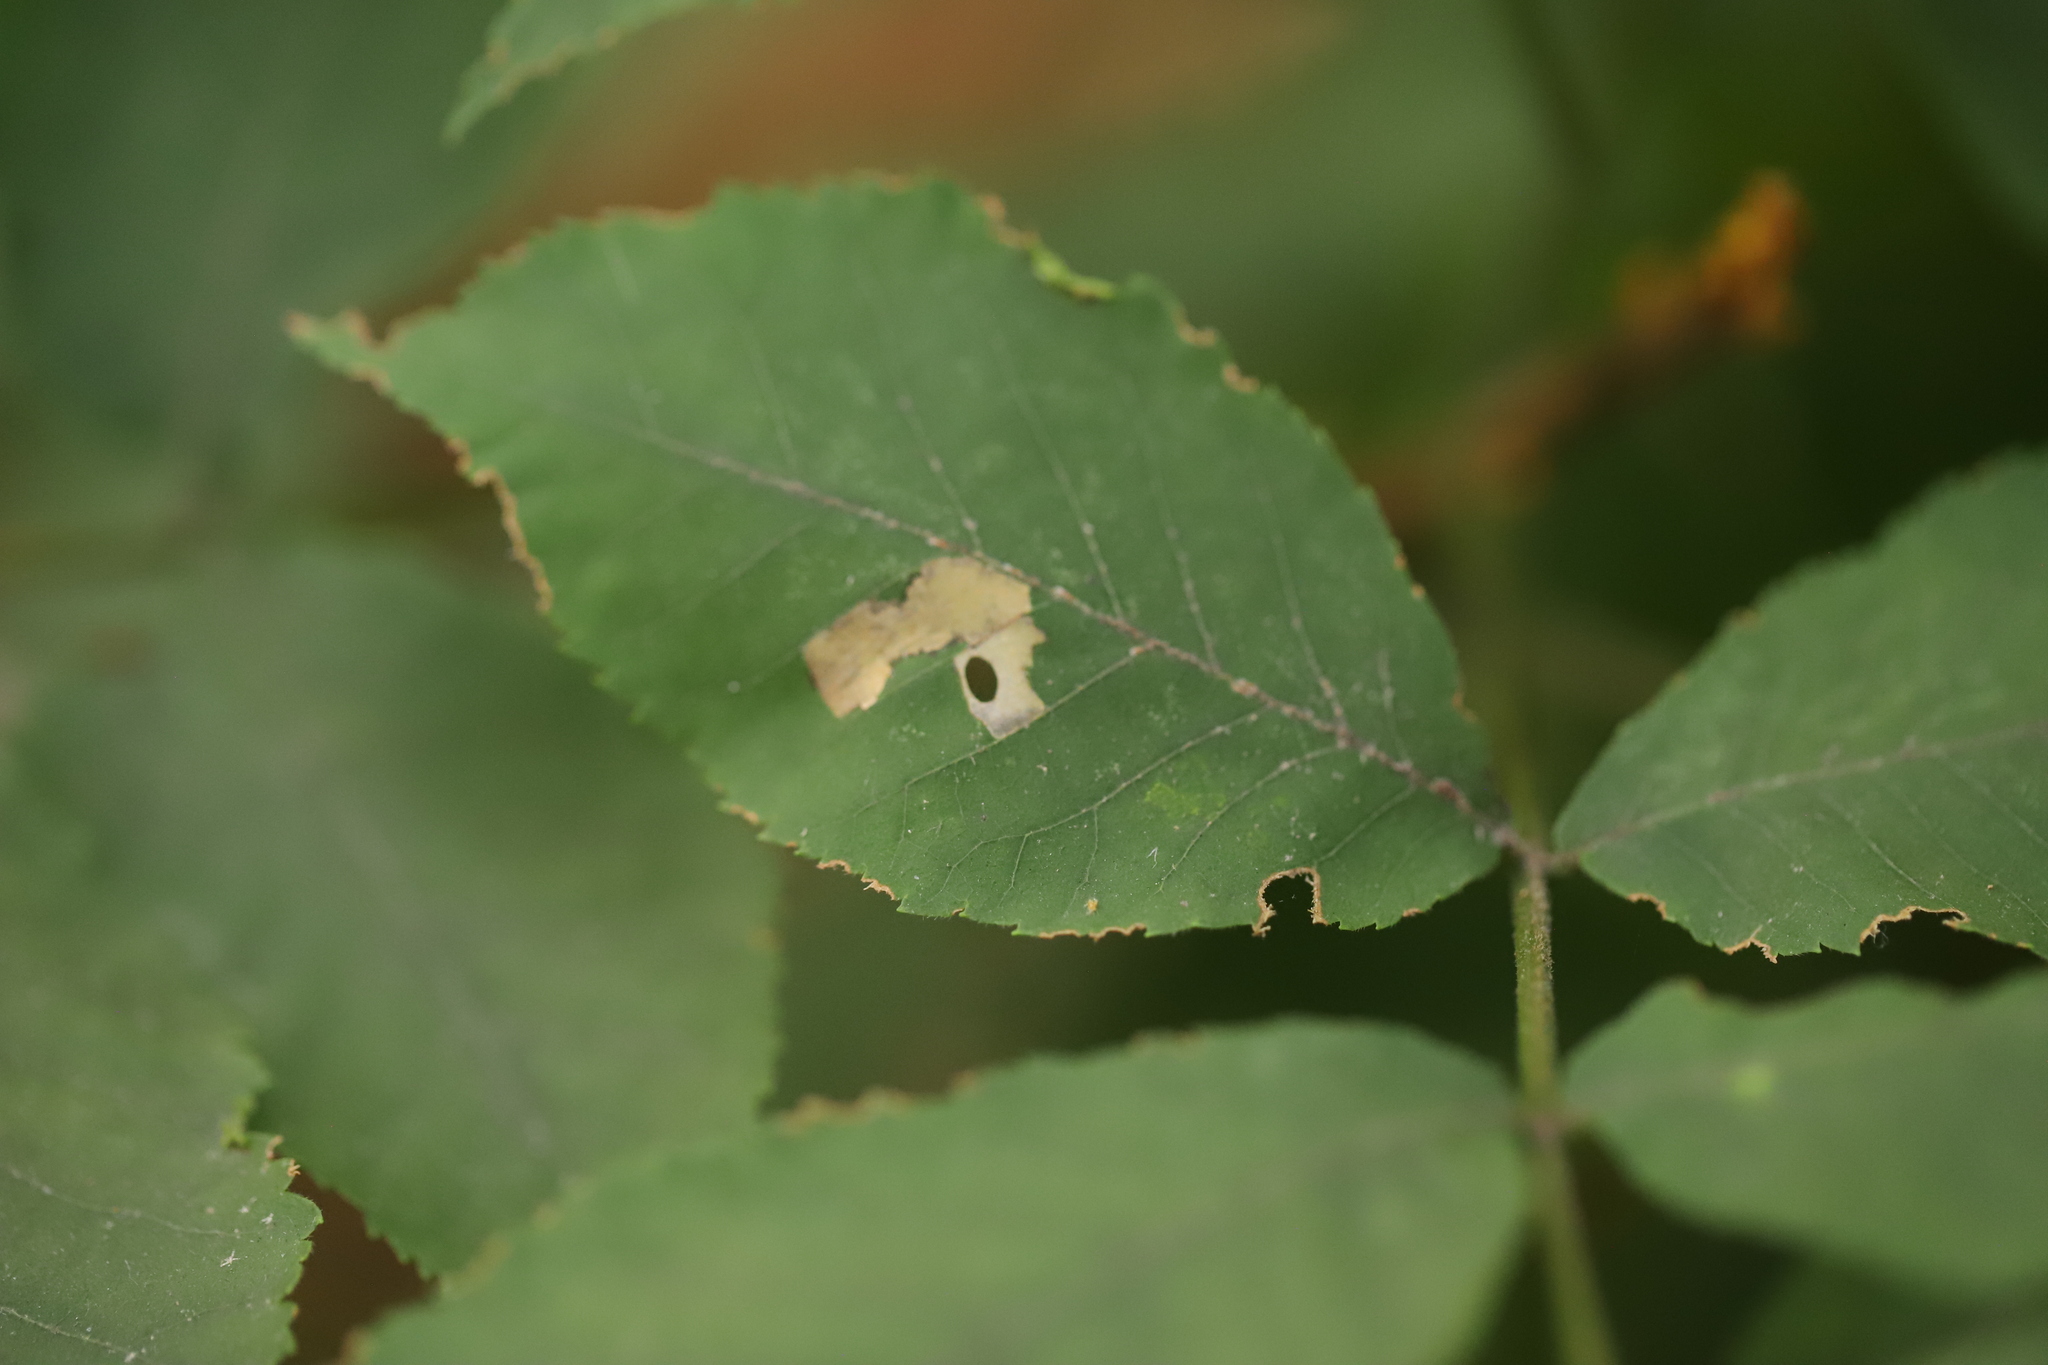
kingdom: Animalia
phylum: Arthropoda
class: Insecta
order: Lepidoptera
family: Heliozelidae
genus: Coptodisca
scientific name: Coptodisca lucifluella
